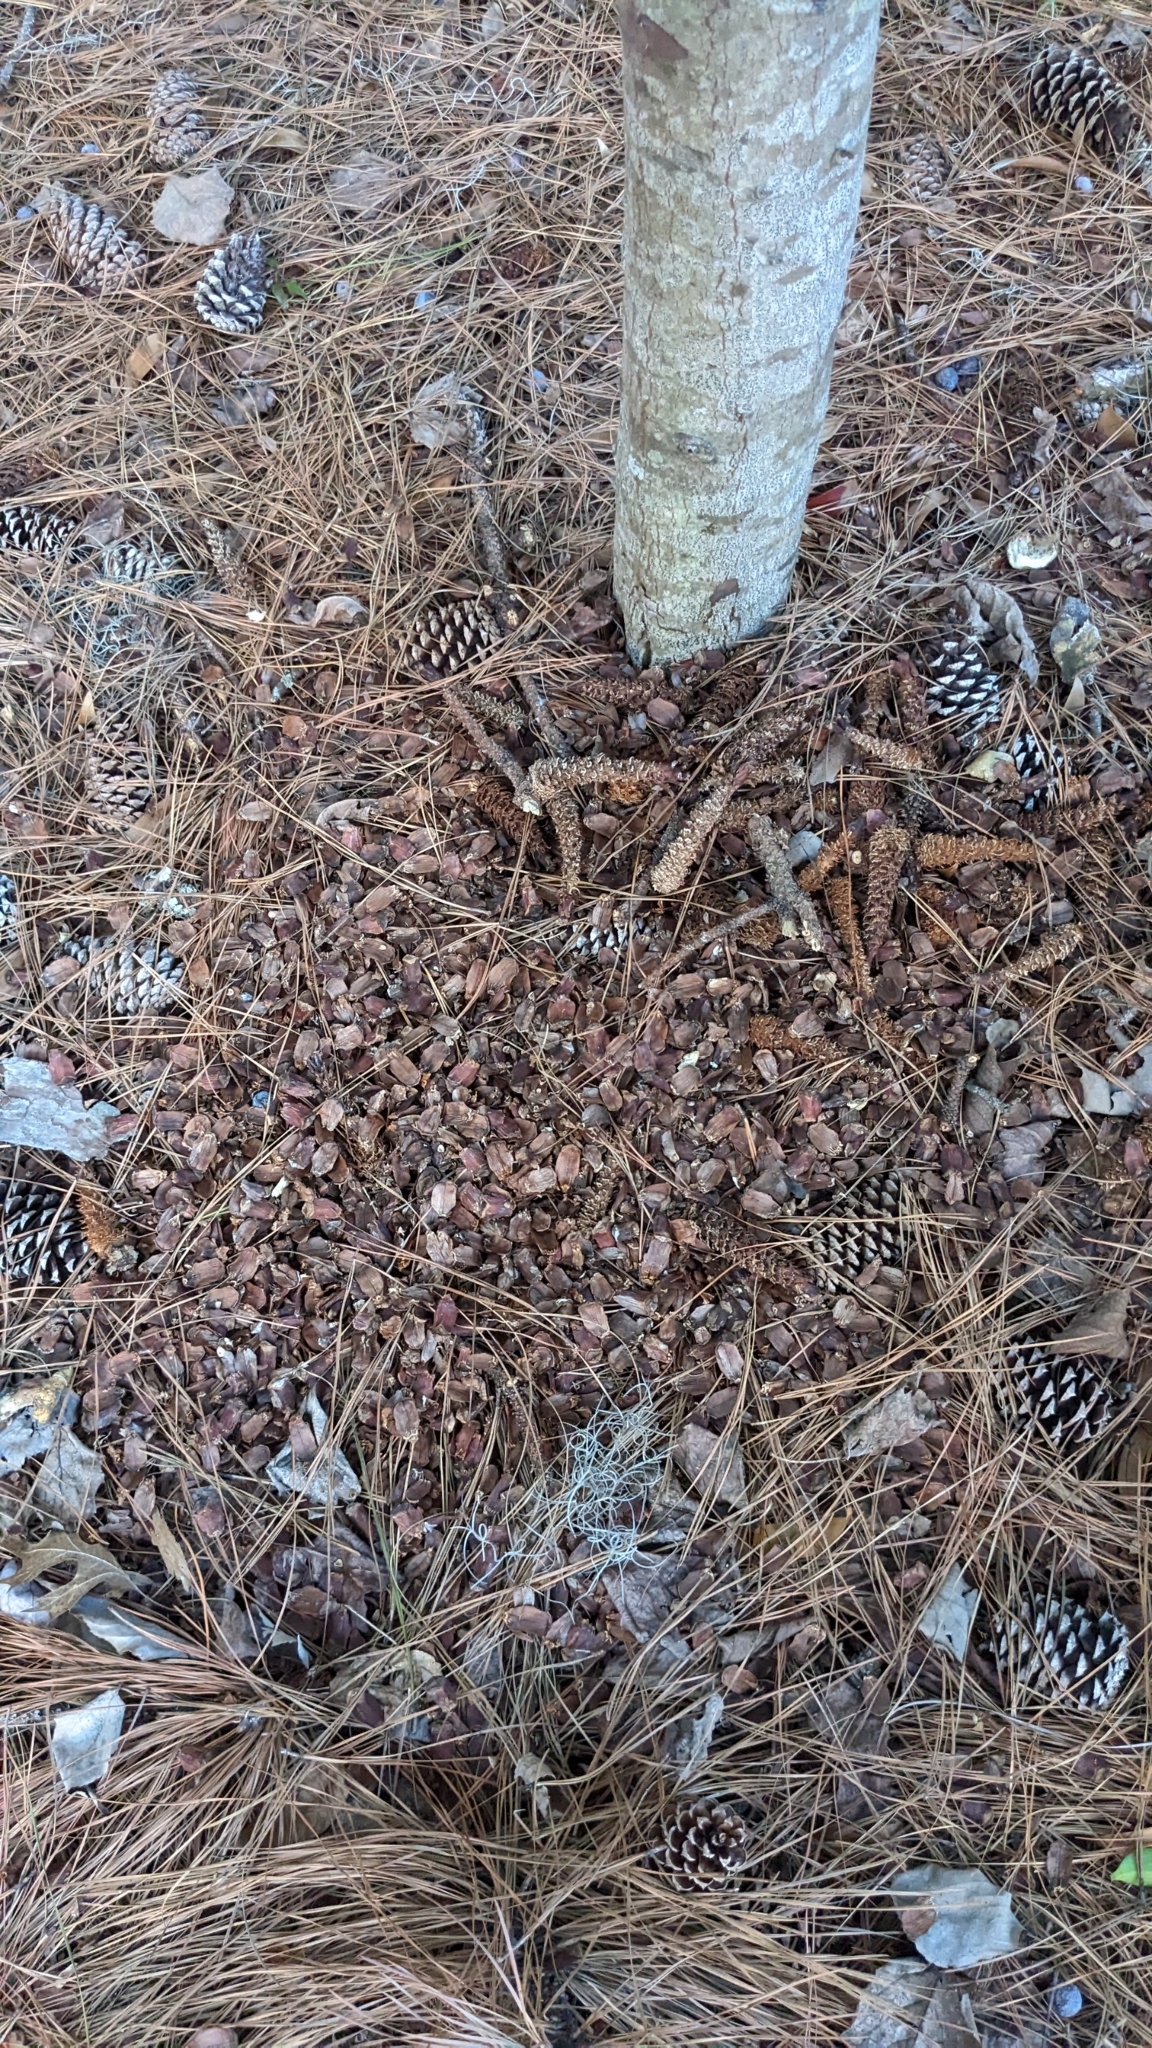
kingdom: Animalia
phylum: Chordata
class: Mammalia
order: Rodentia
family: Sciuridae
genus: Sciurus
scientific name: Sciurus carolinensis
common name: Eastern gray squirrel
